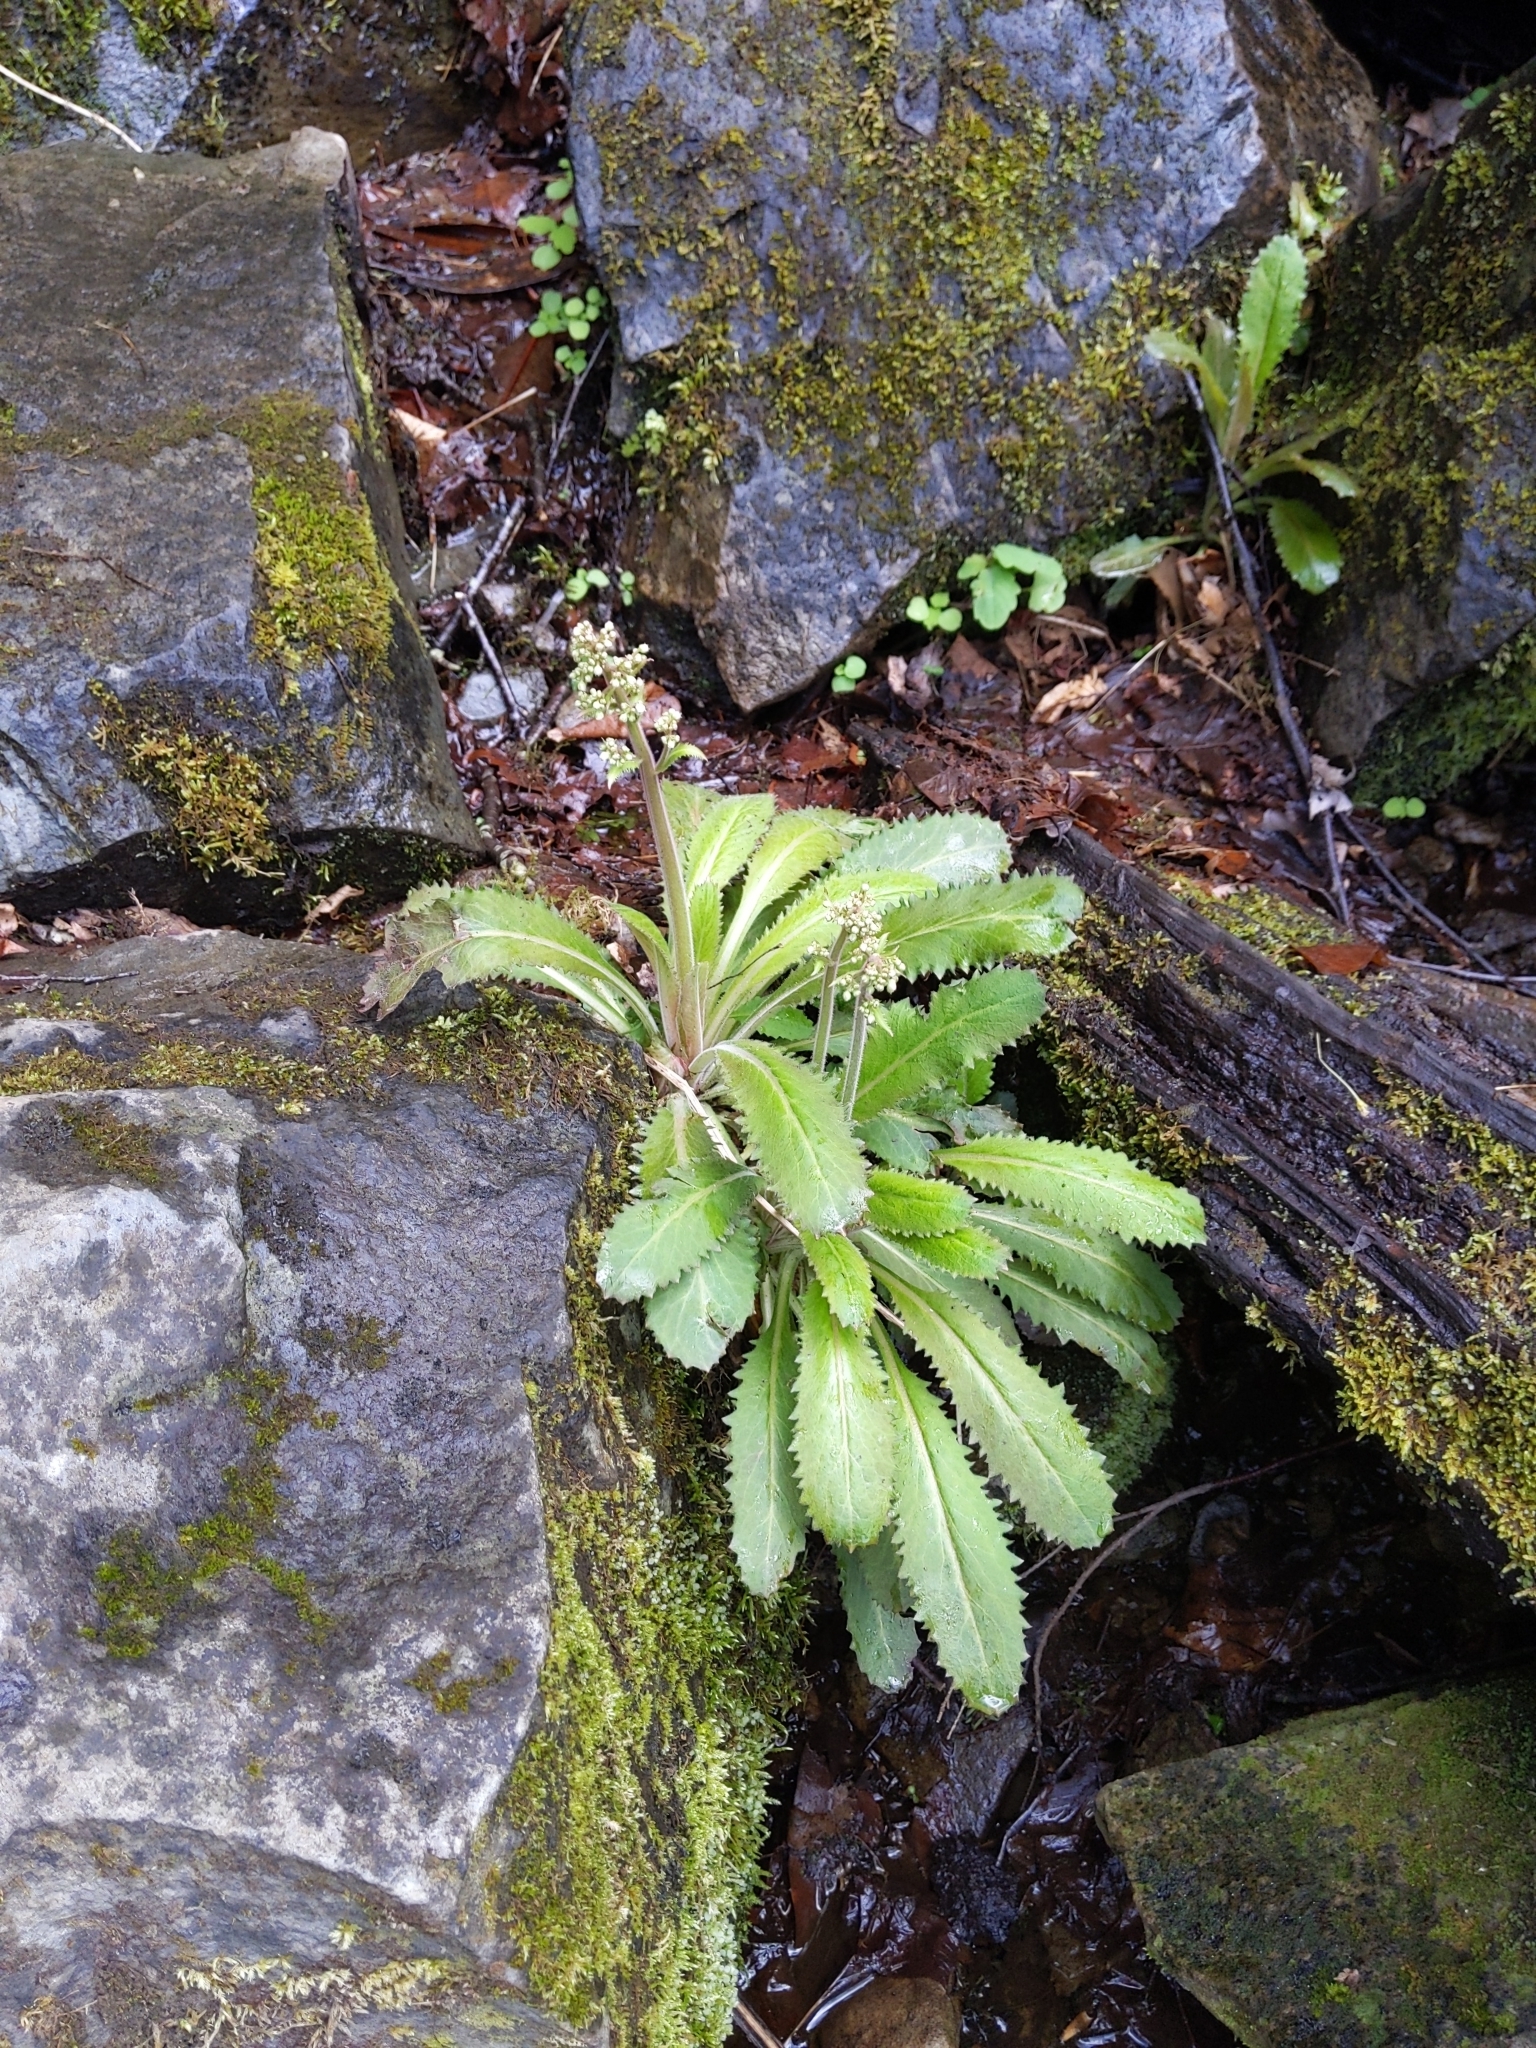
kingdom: Plantae
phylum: Tracheophyta
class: Magnoliopsida
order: Saxifragales
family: Saxifragaceae
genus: Micranthes
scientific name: Micranthes micranthidifolia
